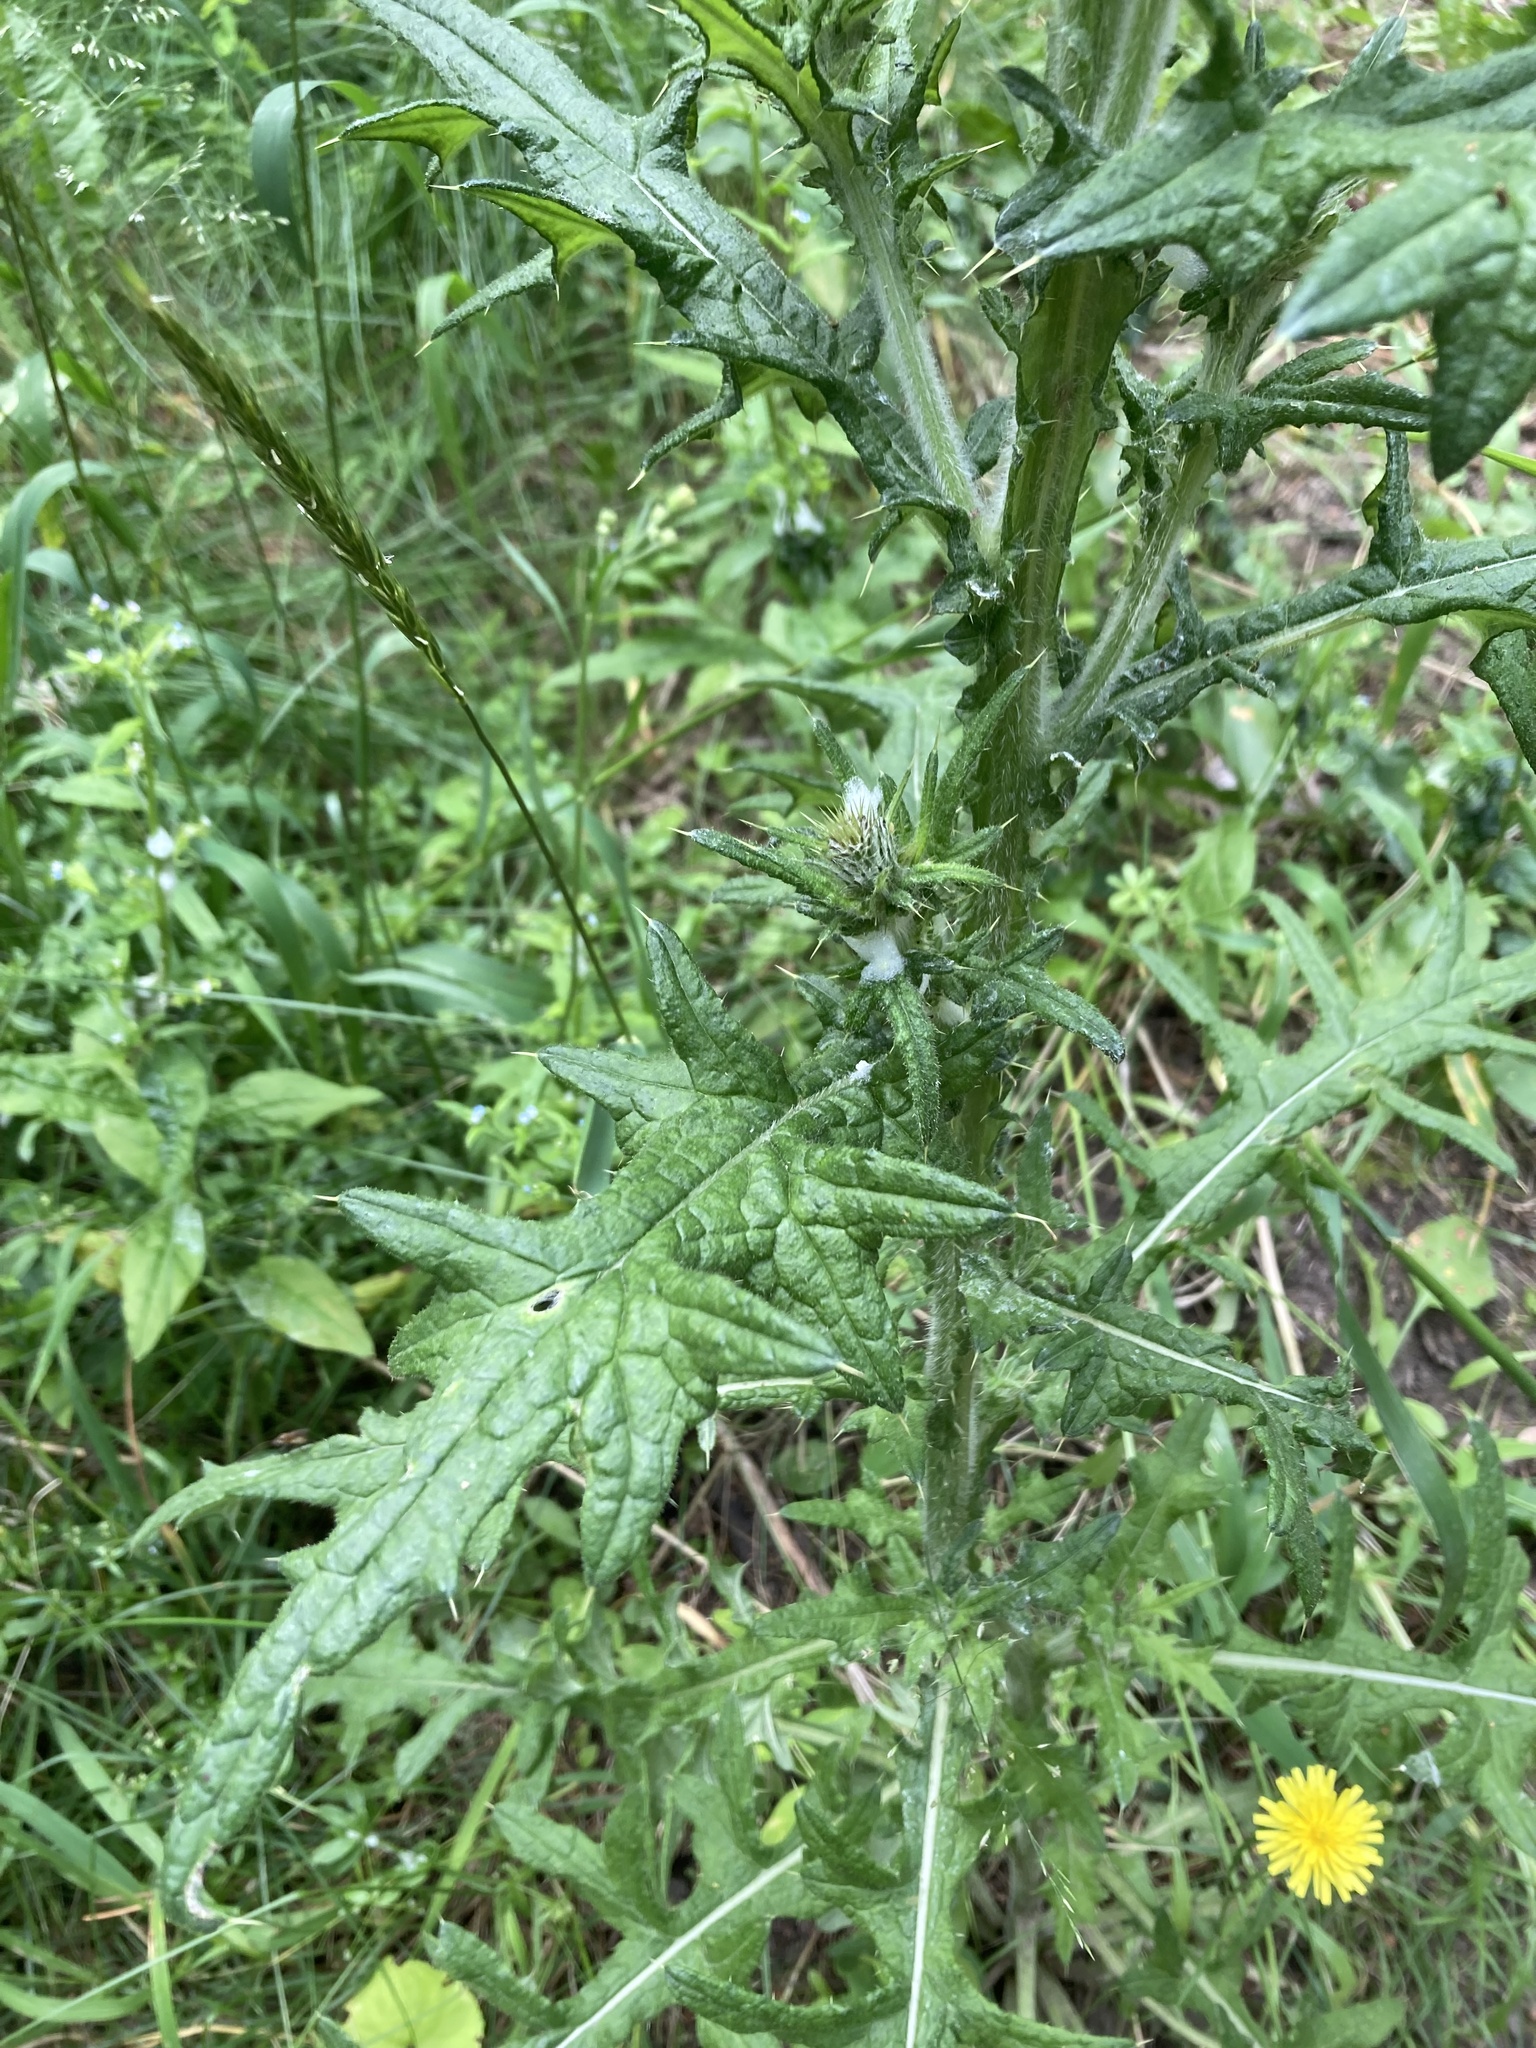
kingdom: Plantae
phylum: Tracheophyta
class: Magnoliopsida
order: Asterales
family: Asteraceae
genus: Cirsium
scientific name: Cirsium vulgare
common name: Bull thistle
